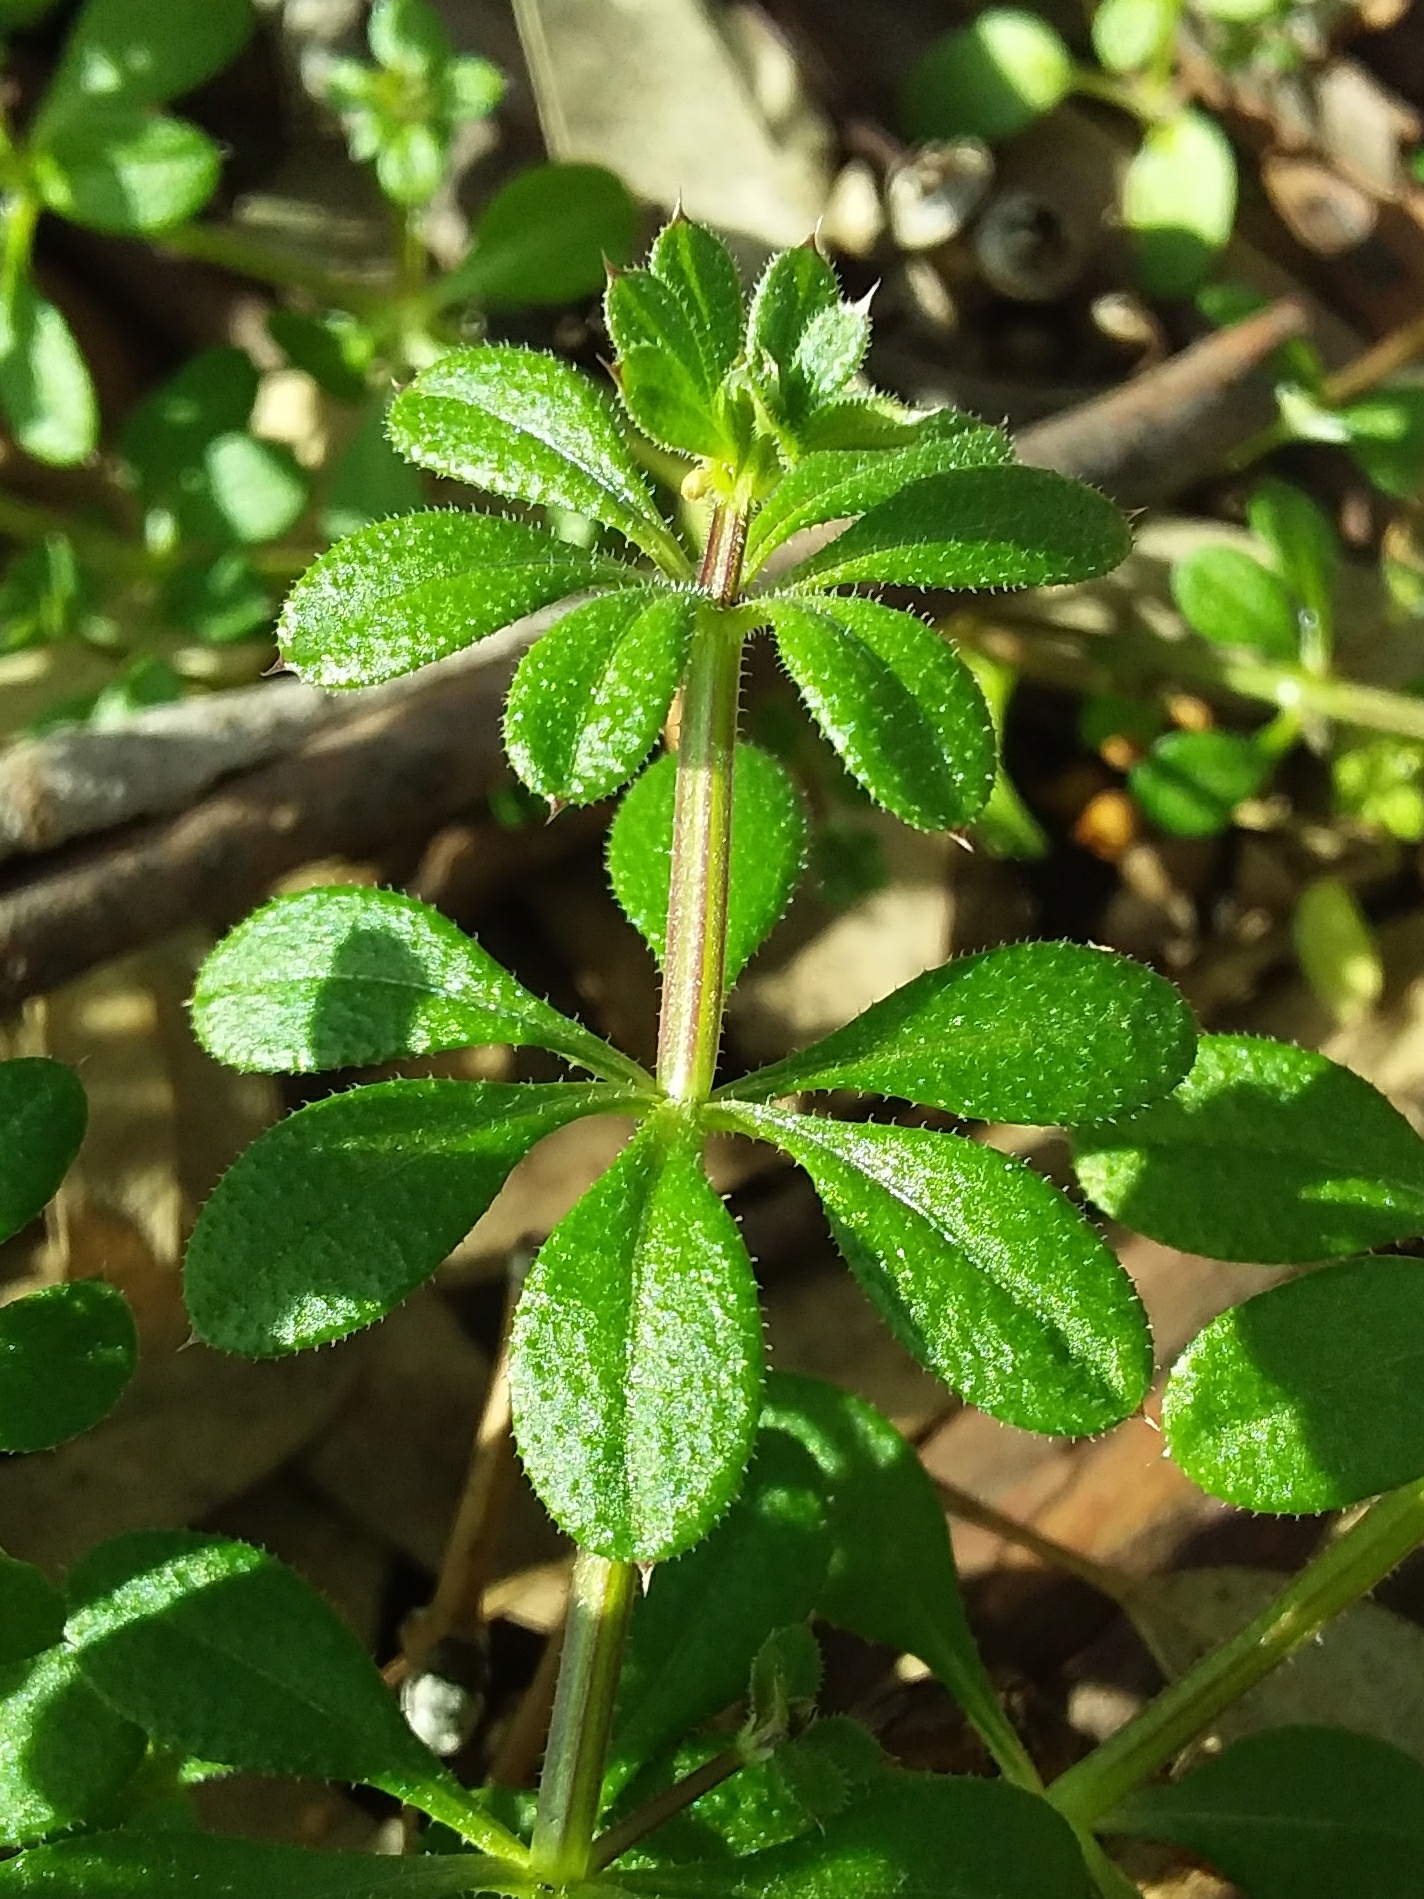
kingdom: Plantae
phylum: Tracheophyta
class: Magnoliopsida
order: Gentianales
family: Rubiaceae
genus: Galium
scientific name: Galium aparine
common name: Cleavers
